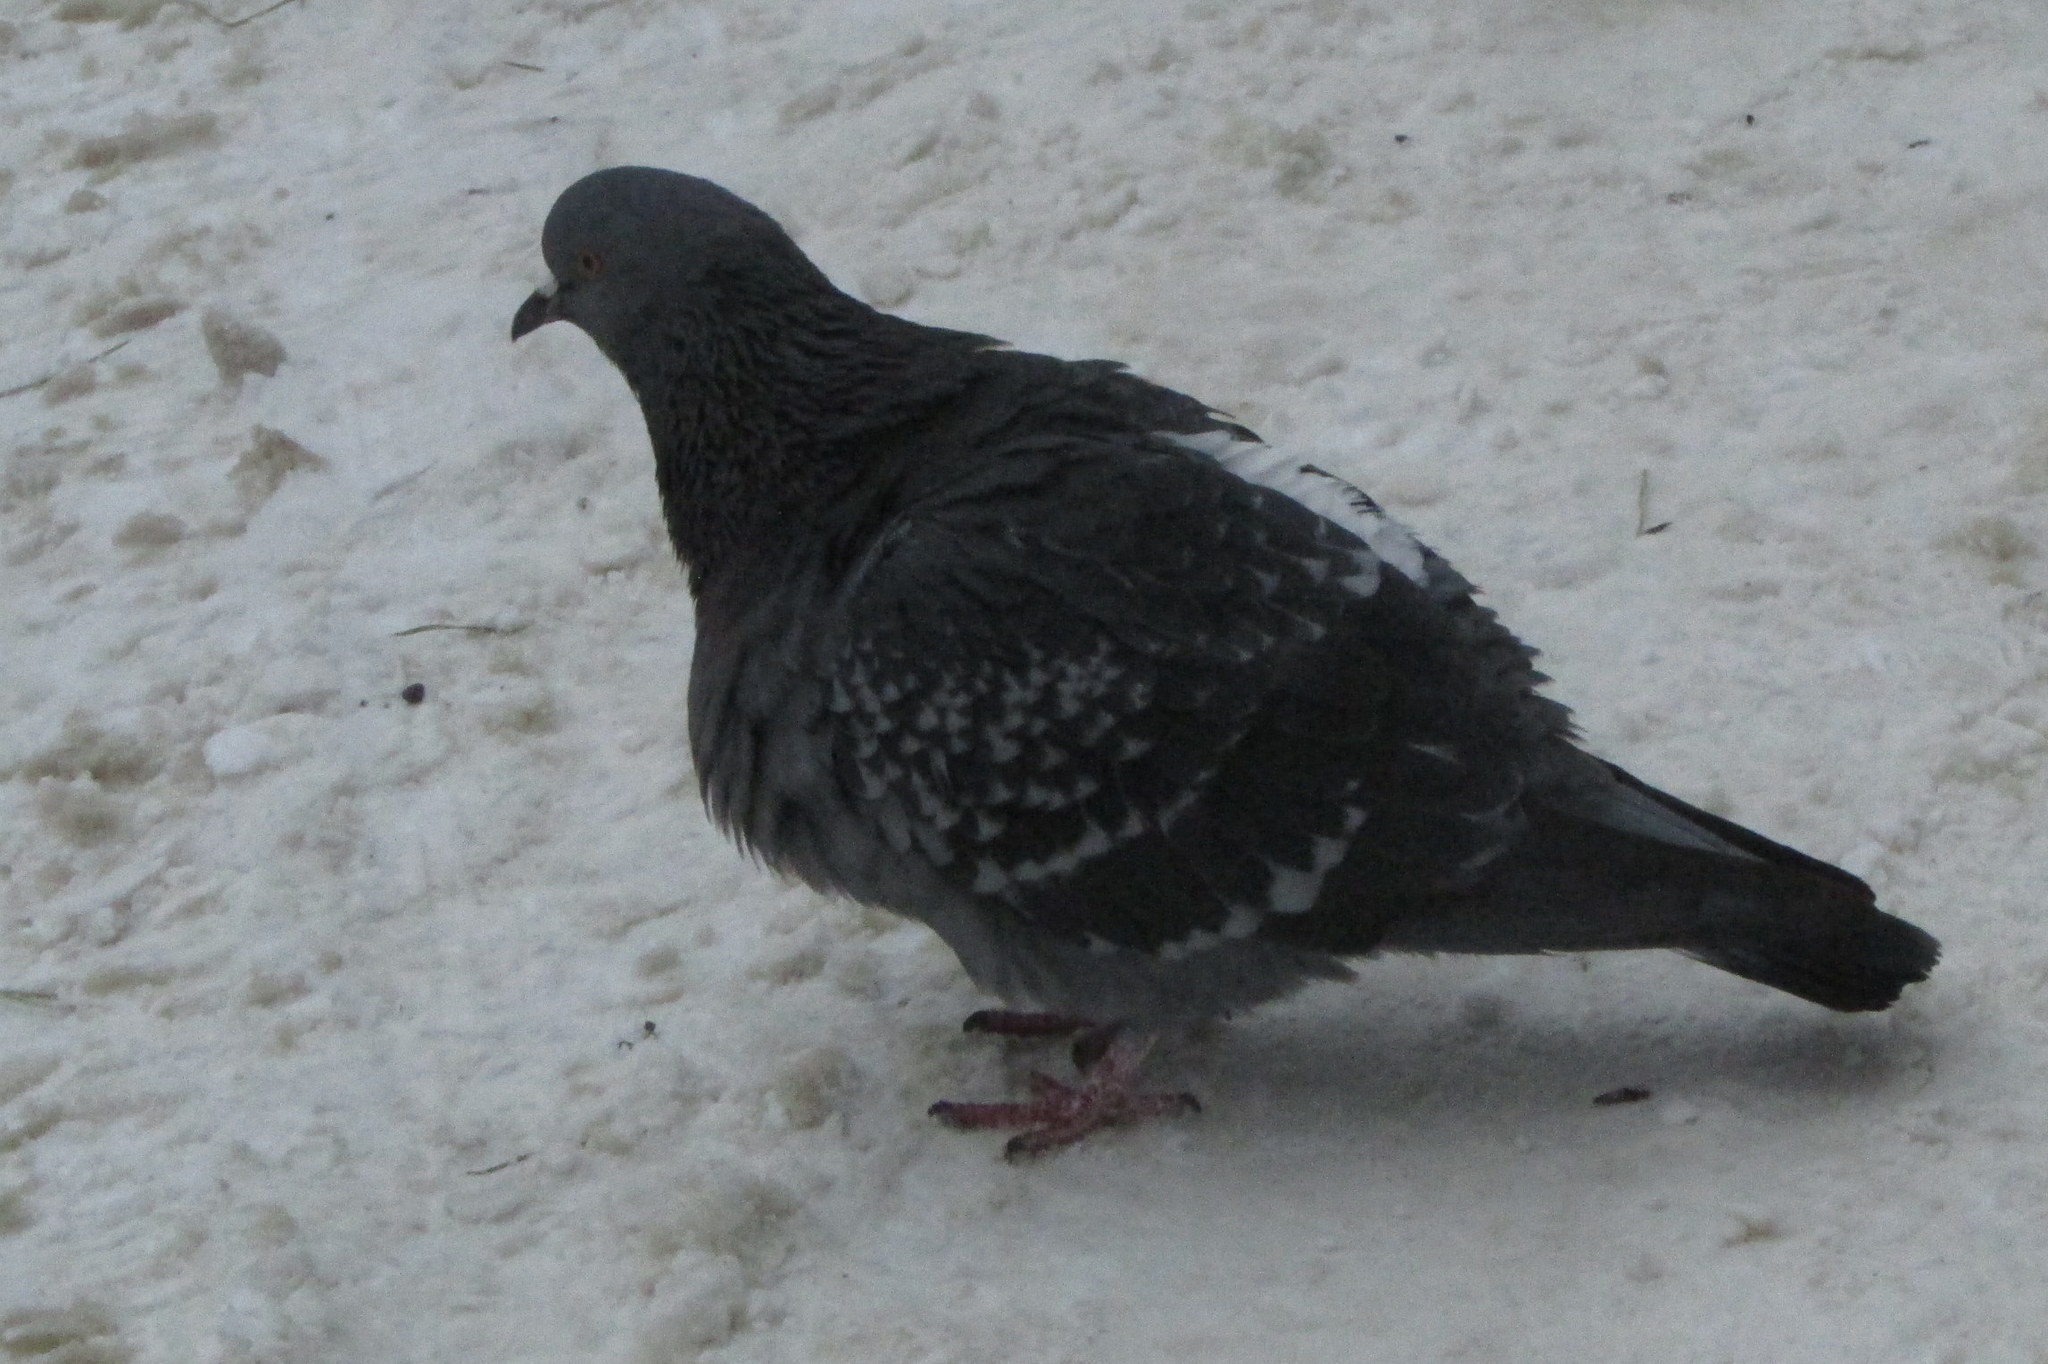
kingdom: Animalia
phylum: Chordata
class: Aves
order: Columbiformes
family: Columbidae
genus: Columba
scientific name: Columba livia
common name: Rock pigeon
